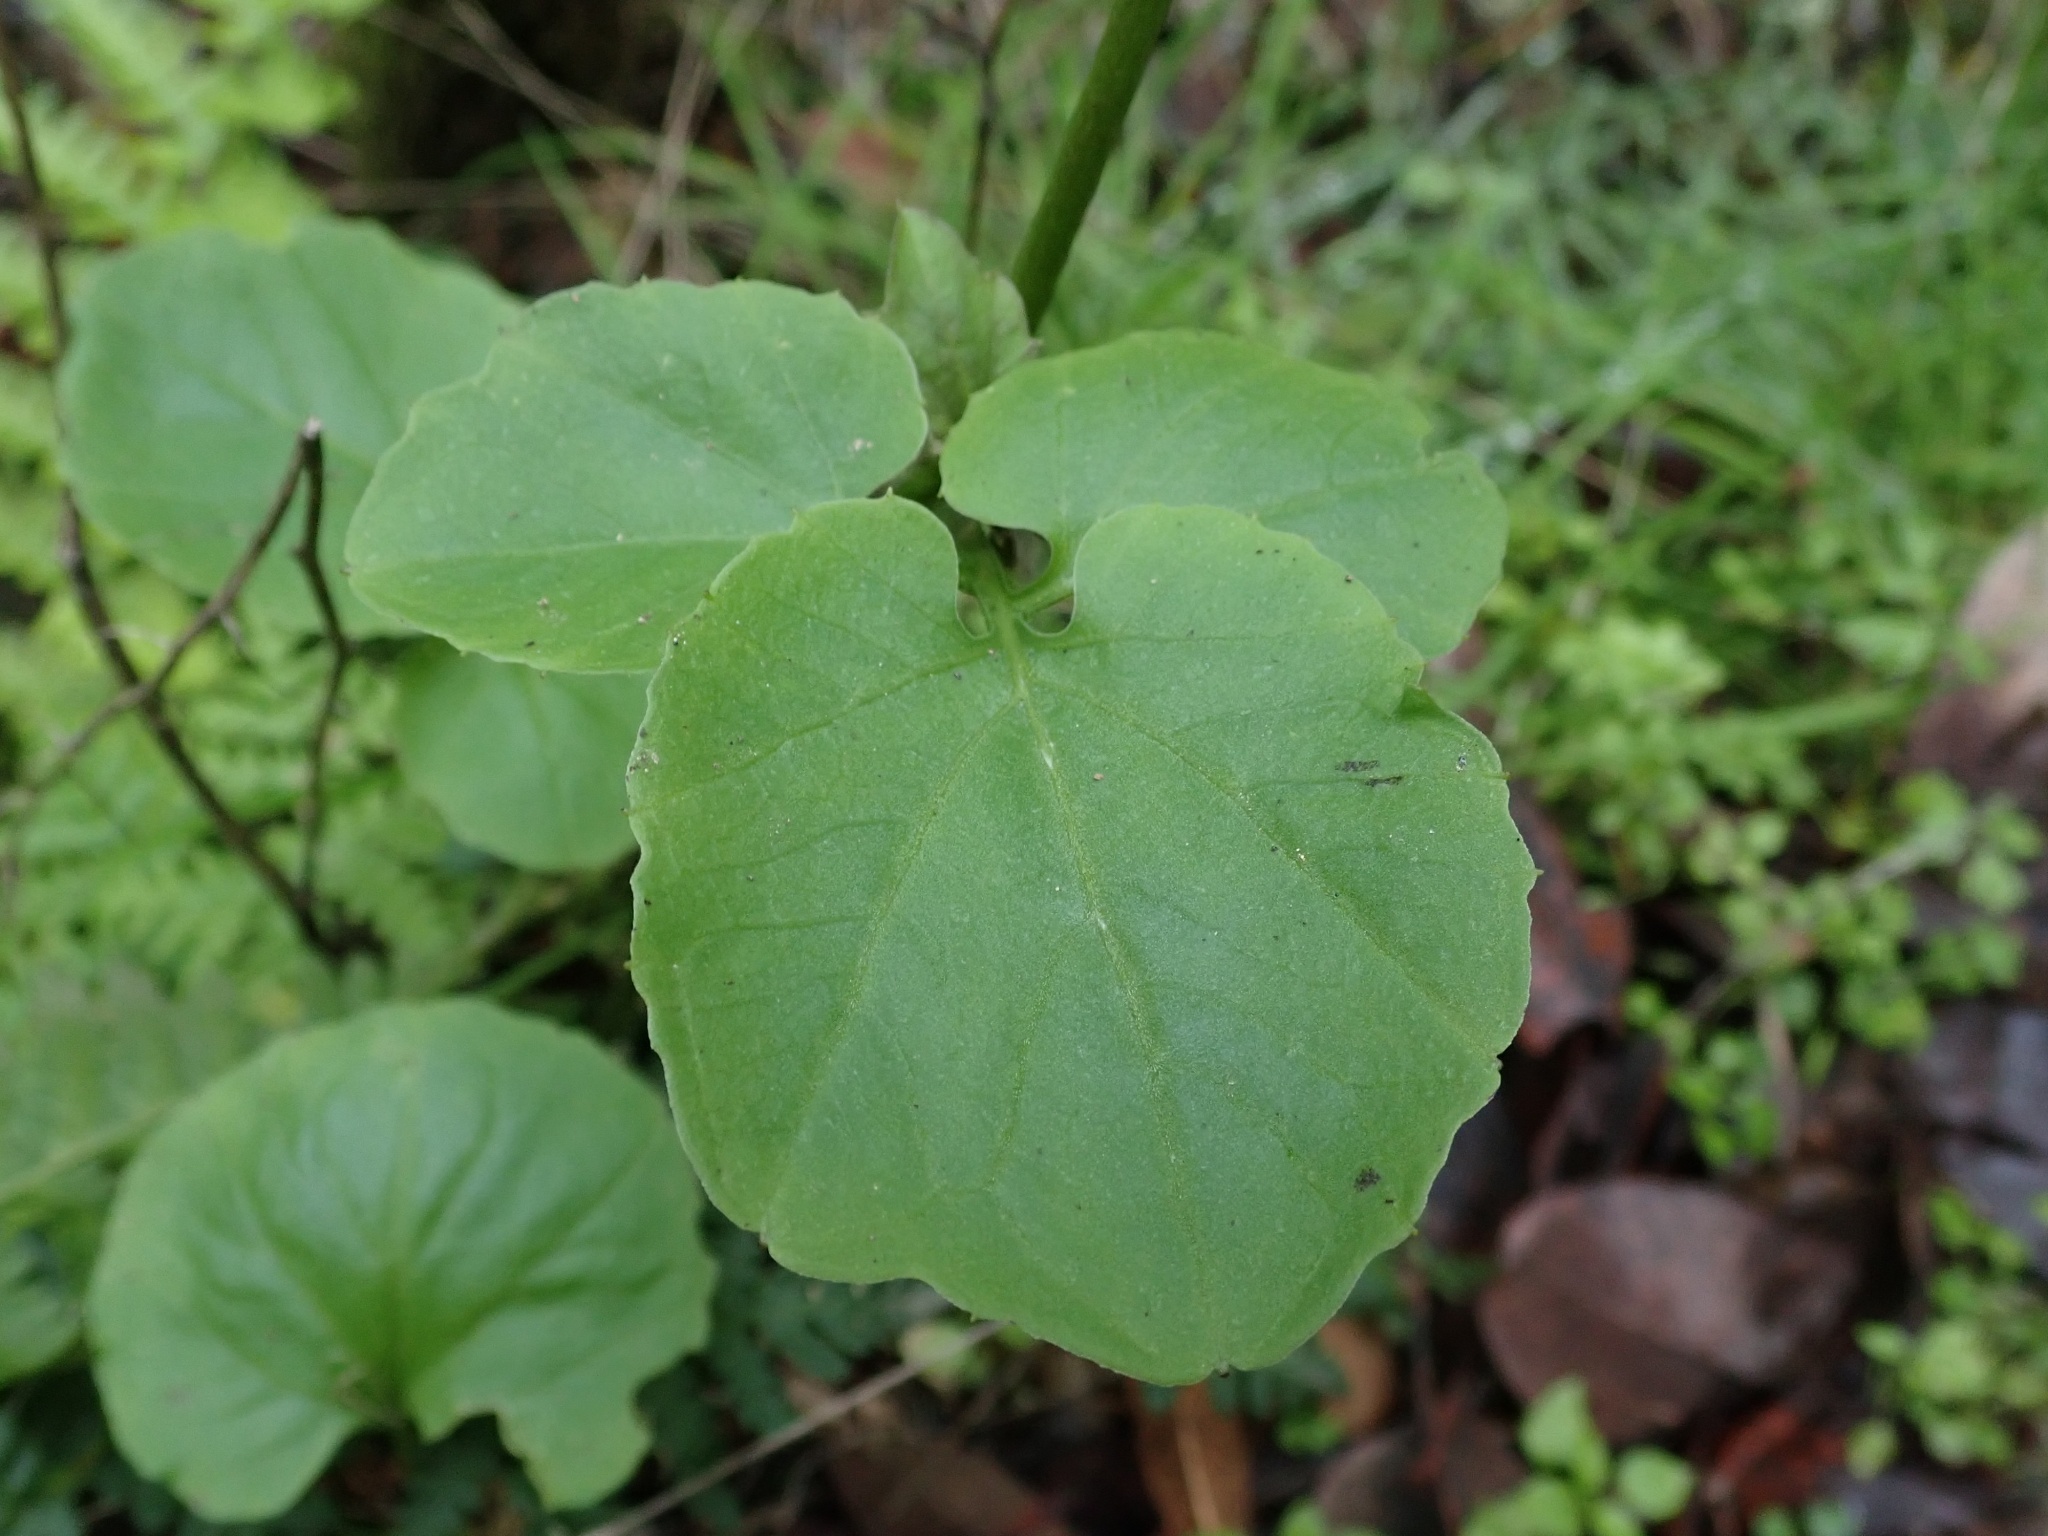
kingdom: Plantae
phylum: Tracheophyta
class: Magnoliopsida
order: Brassicales
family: Brassicaceae
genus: Cardamine
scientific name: Cardamine californica
